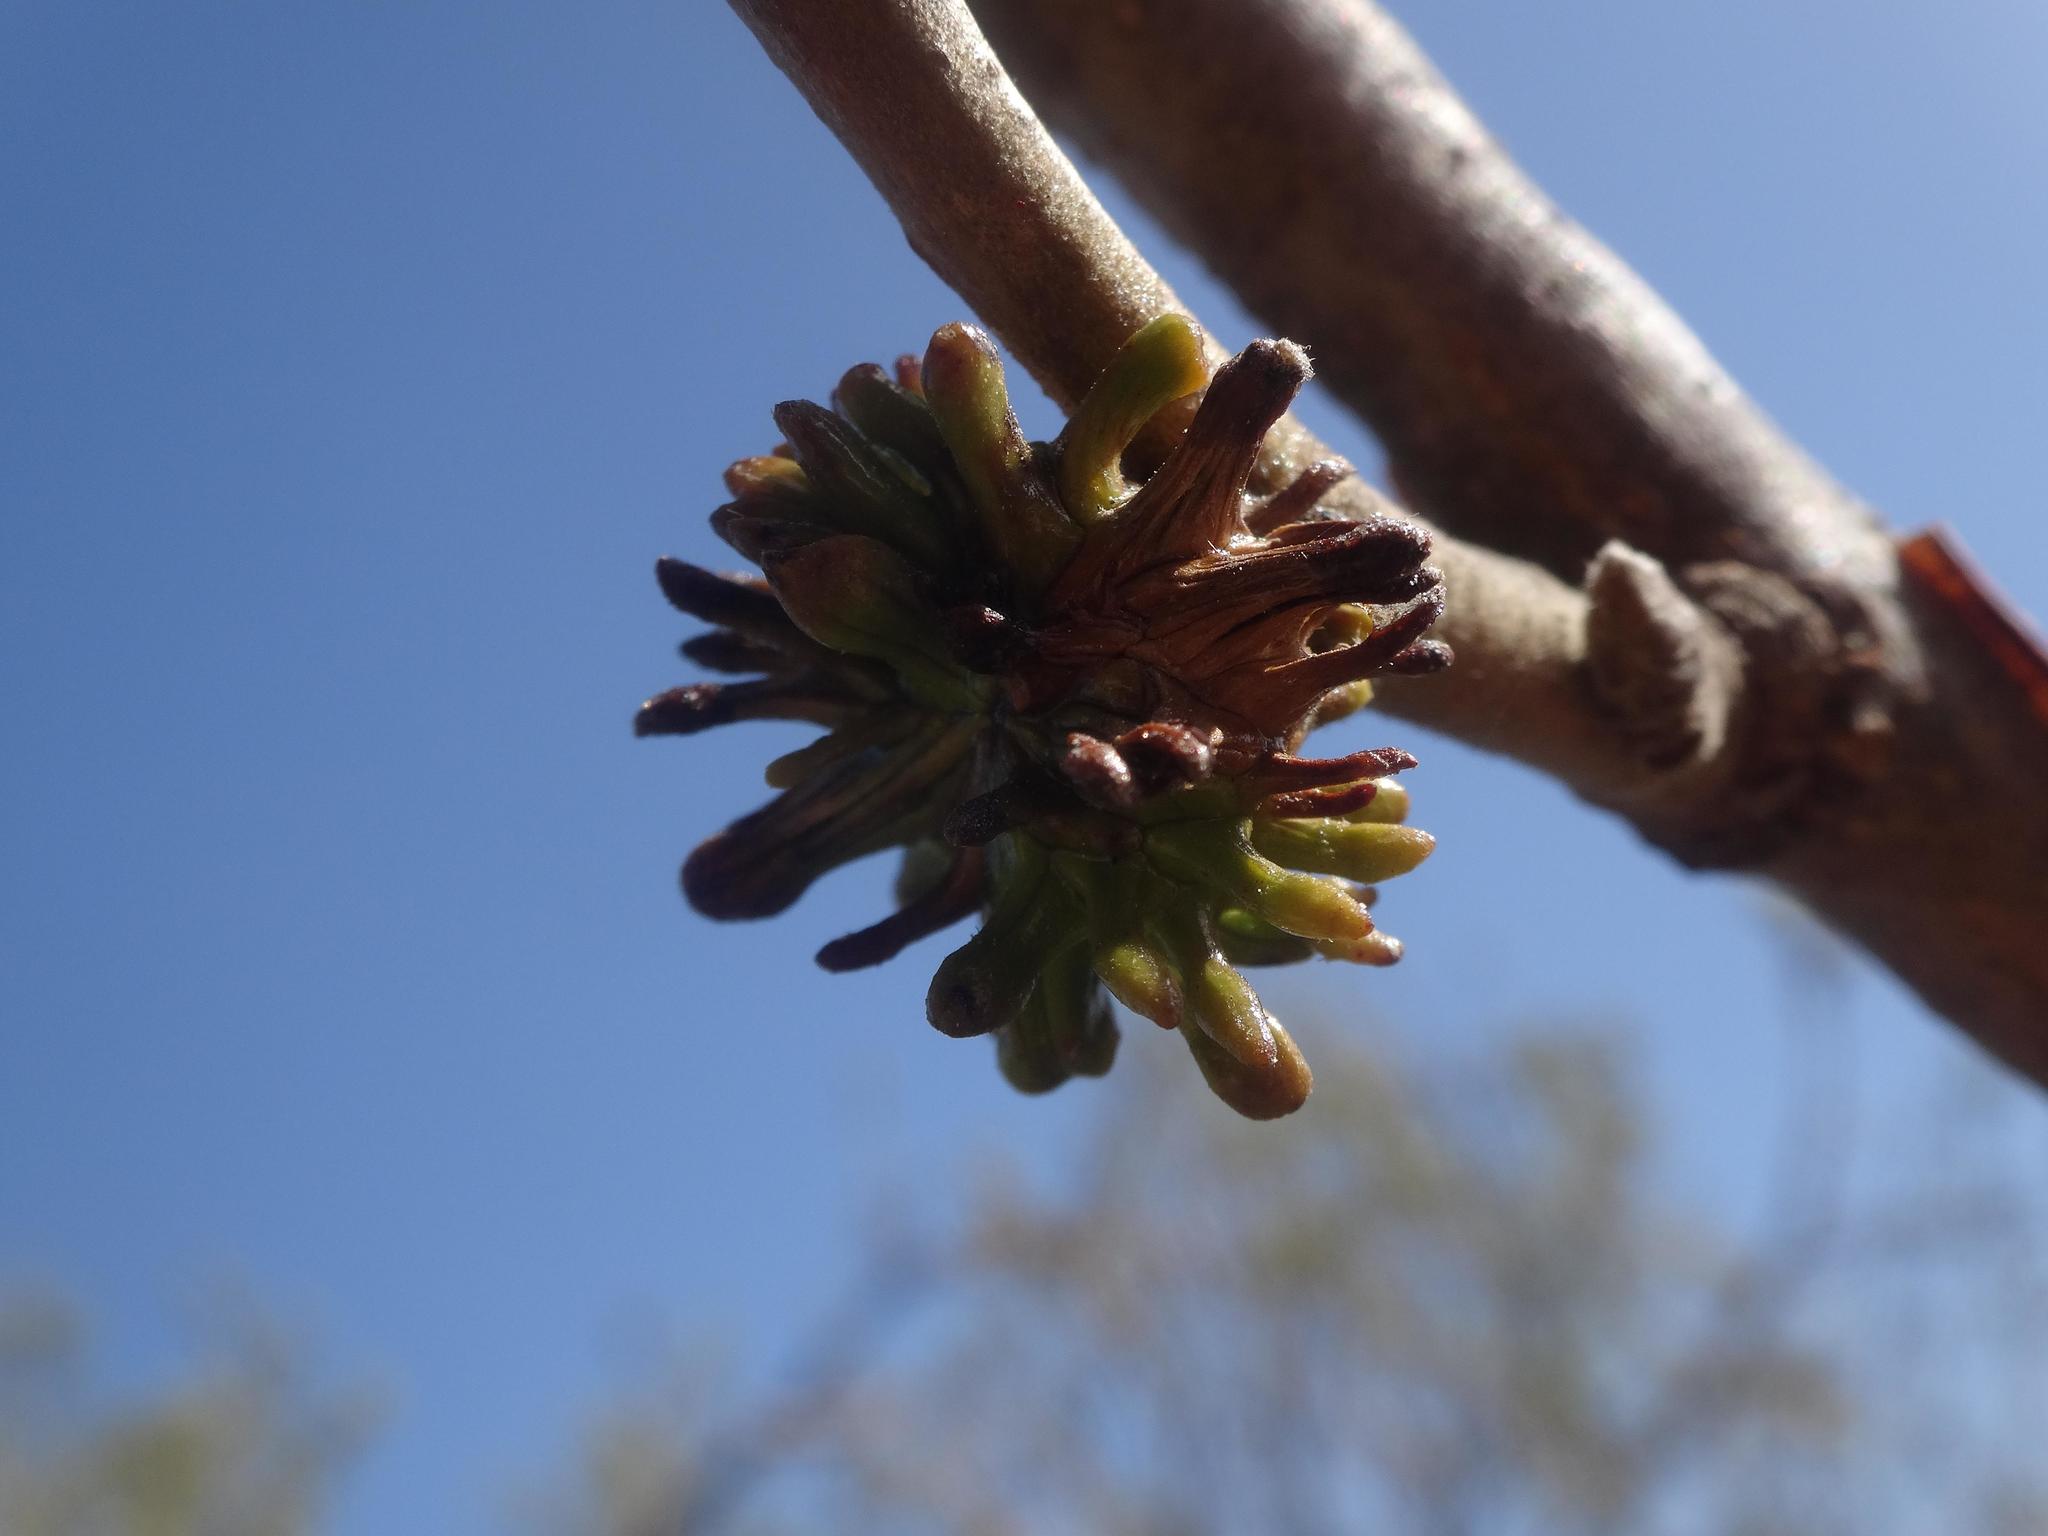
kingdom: Animalia
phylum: Arthropoda
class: Insecta
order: Hymenoptera
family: Cynipidae
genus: Andricus
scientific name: Andricus grossulariae
